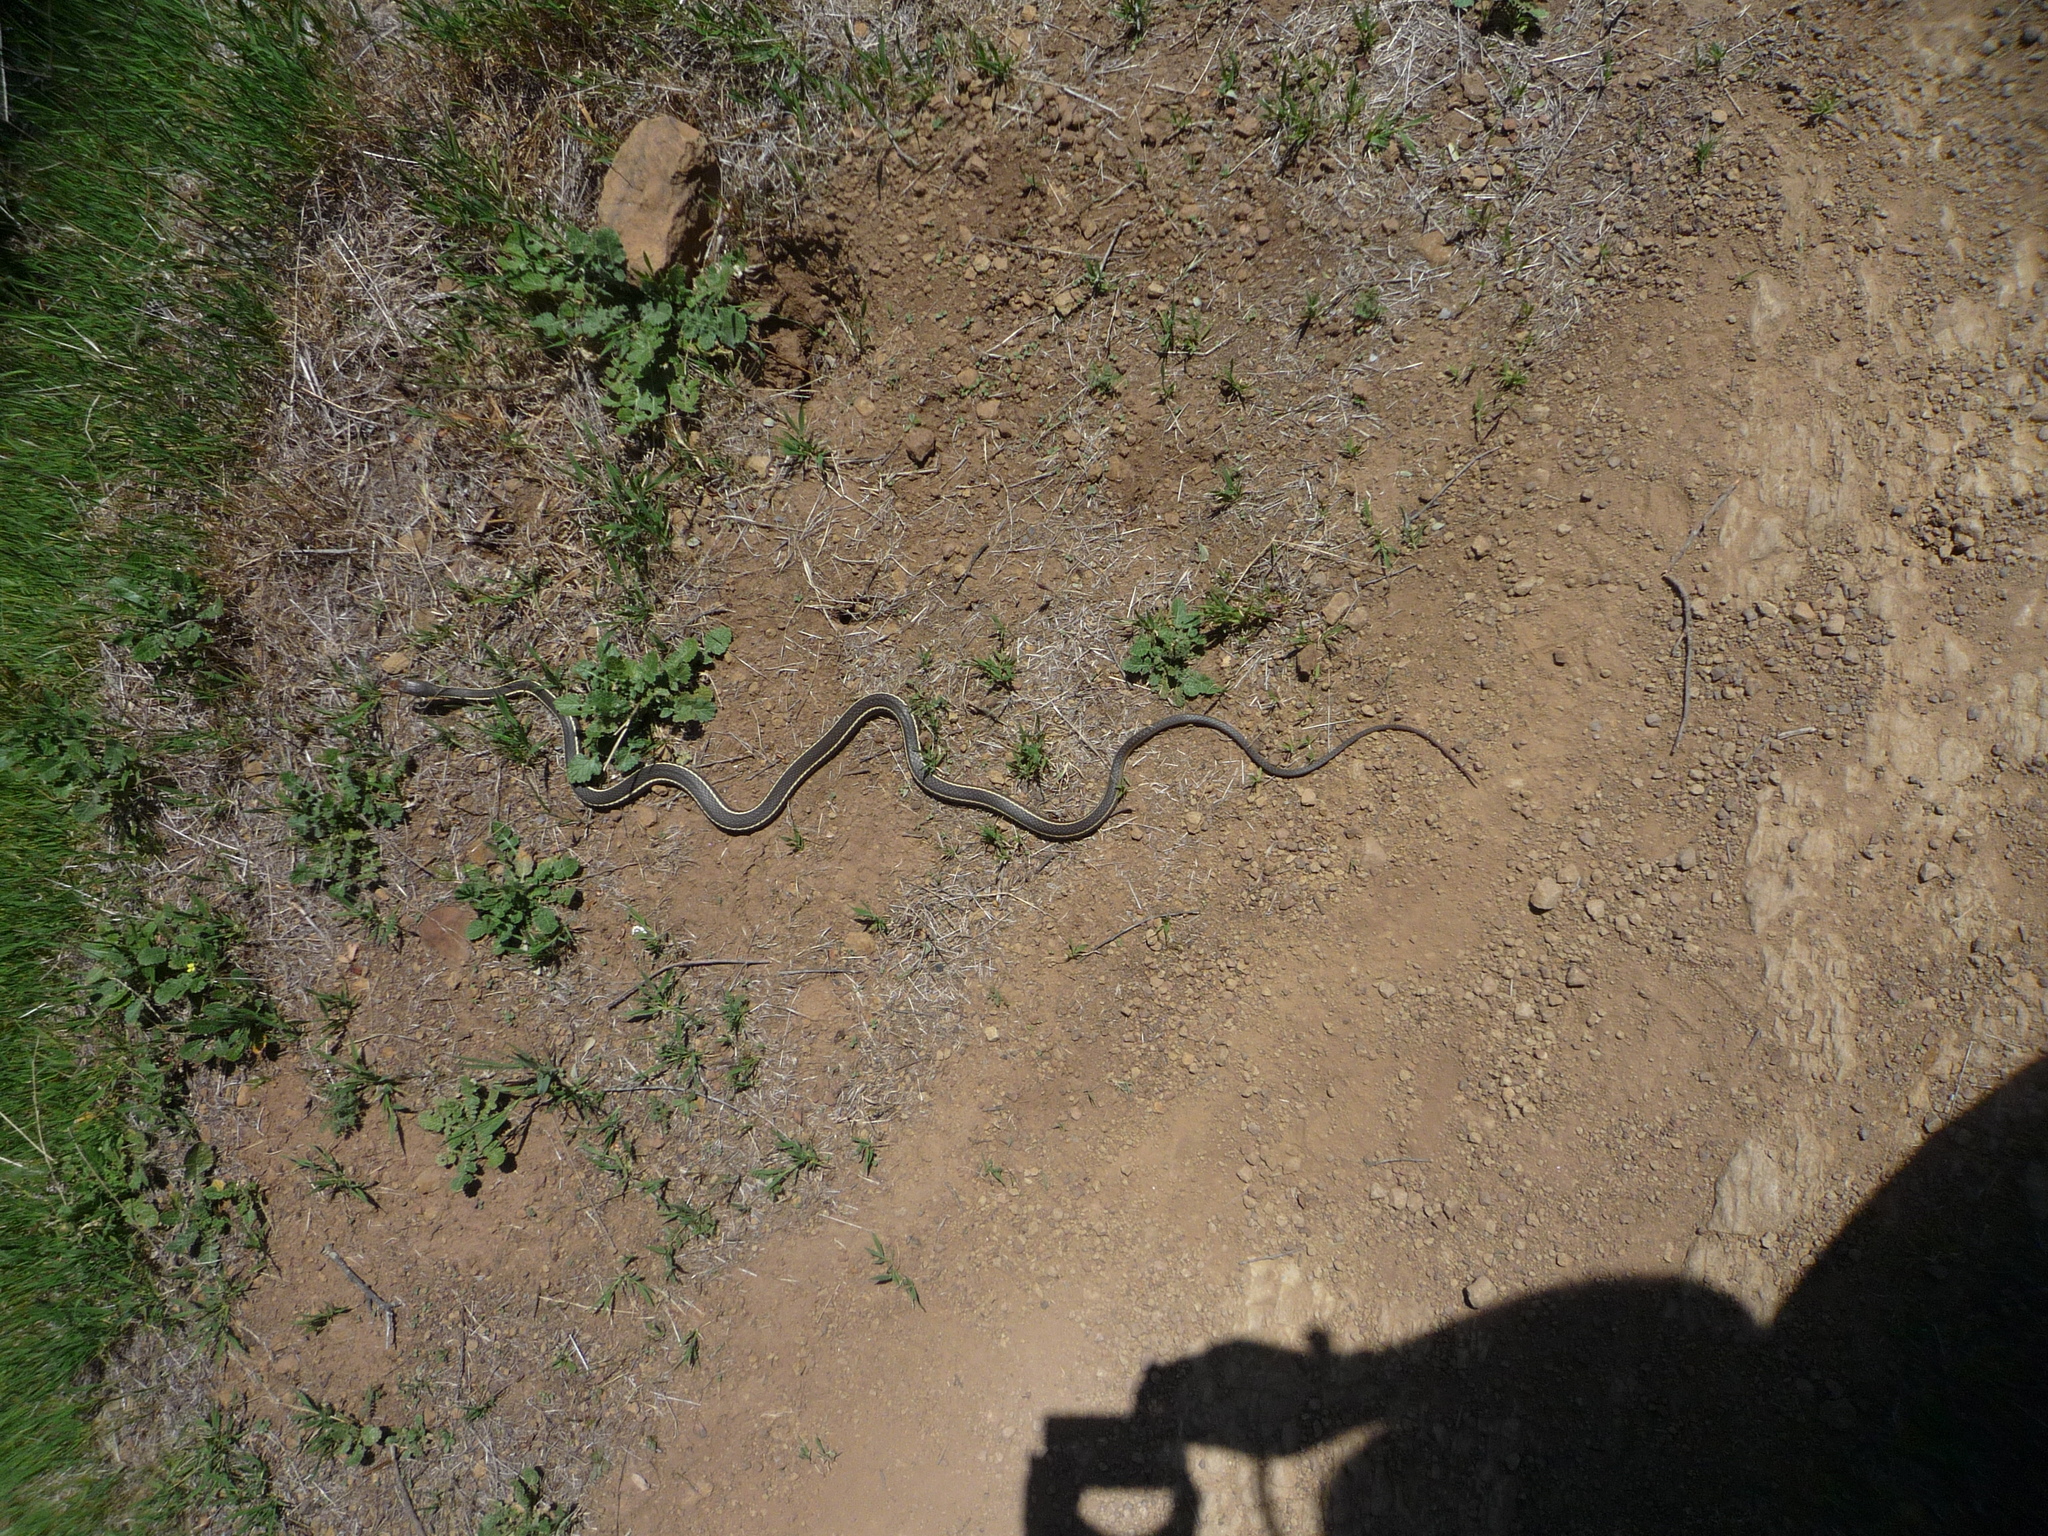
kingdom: Animalia
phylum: Chordata
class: Squamata
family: Colubridae
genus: Masticophis
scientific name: Masticophis lateralis
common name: Striped racer
